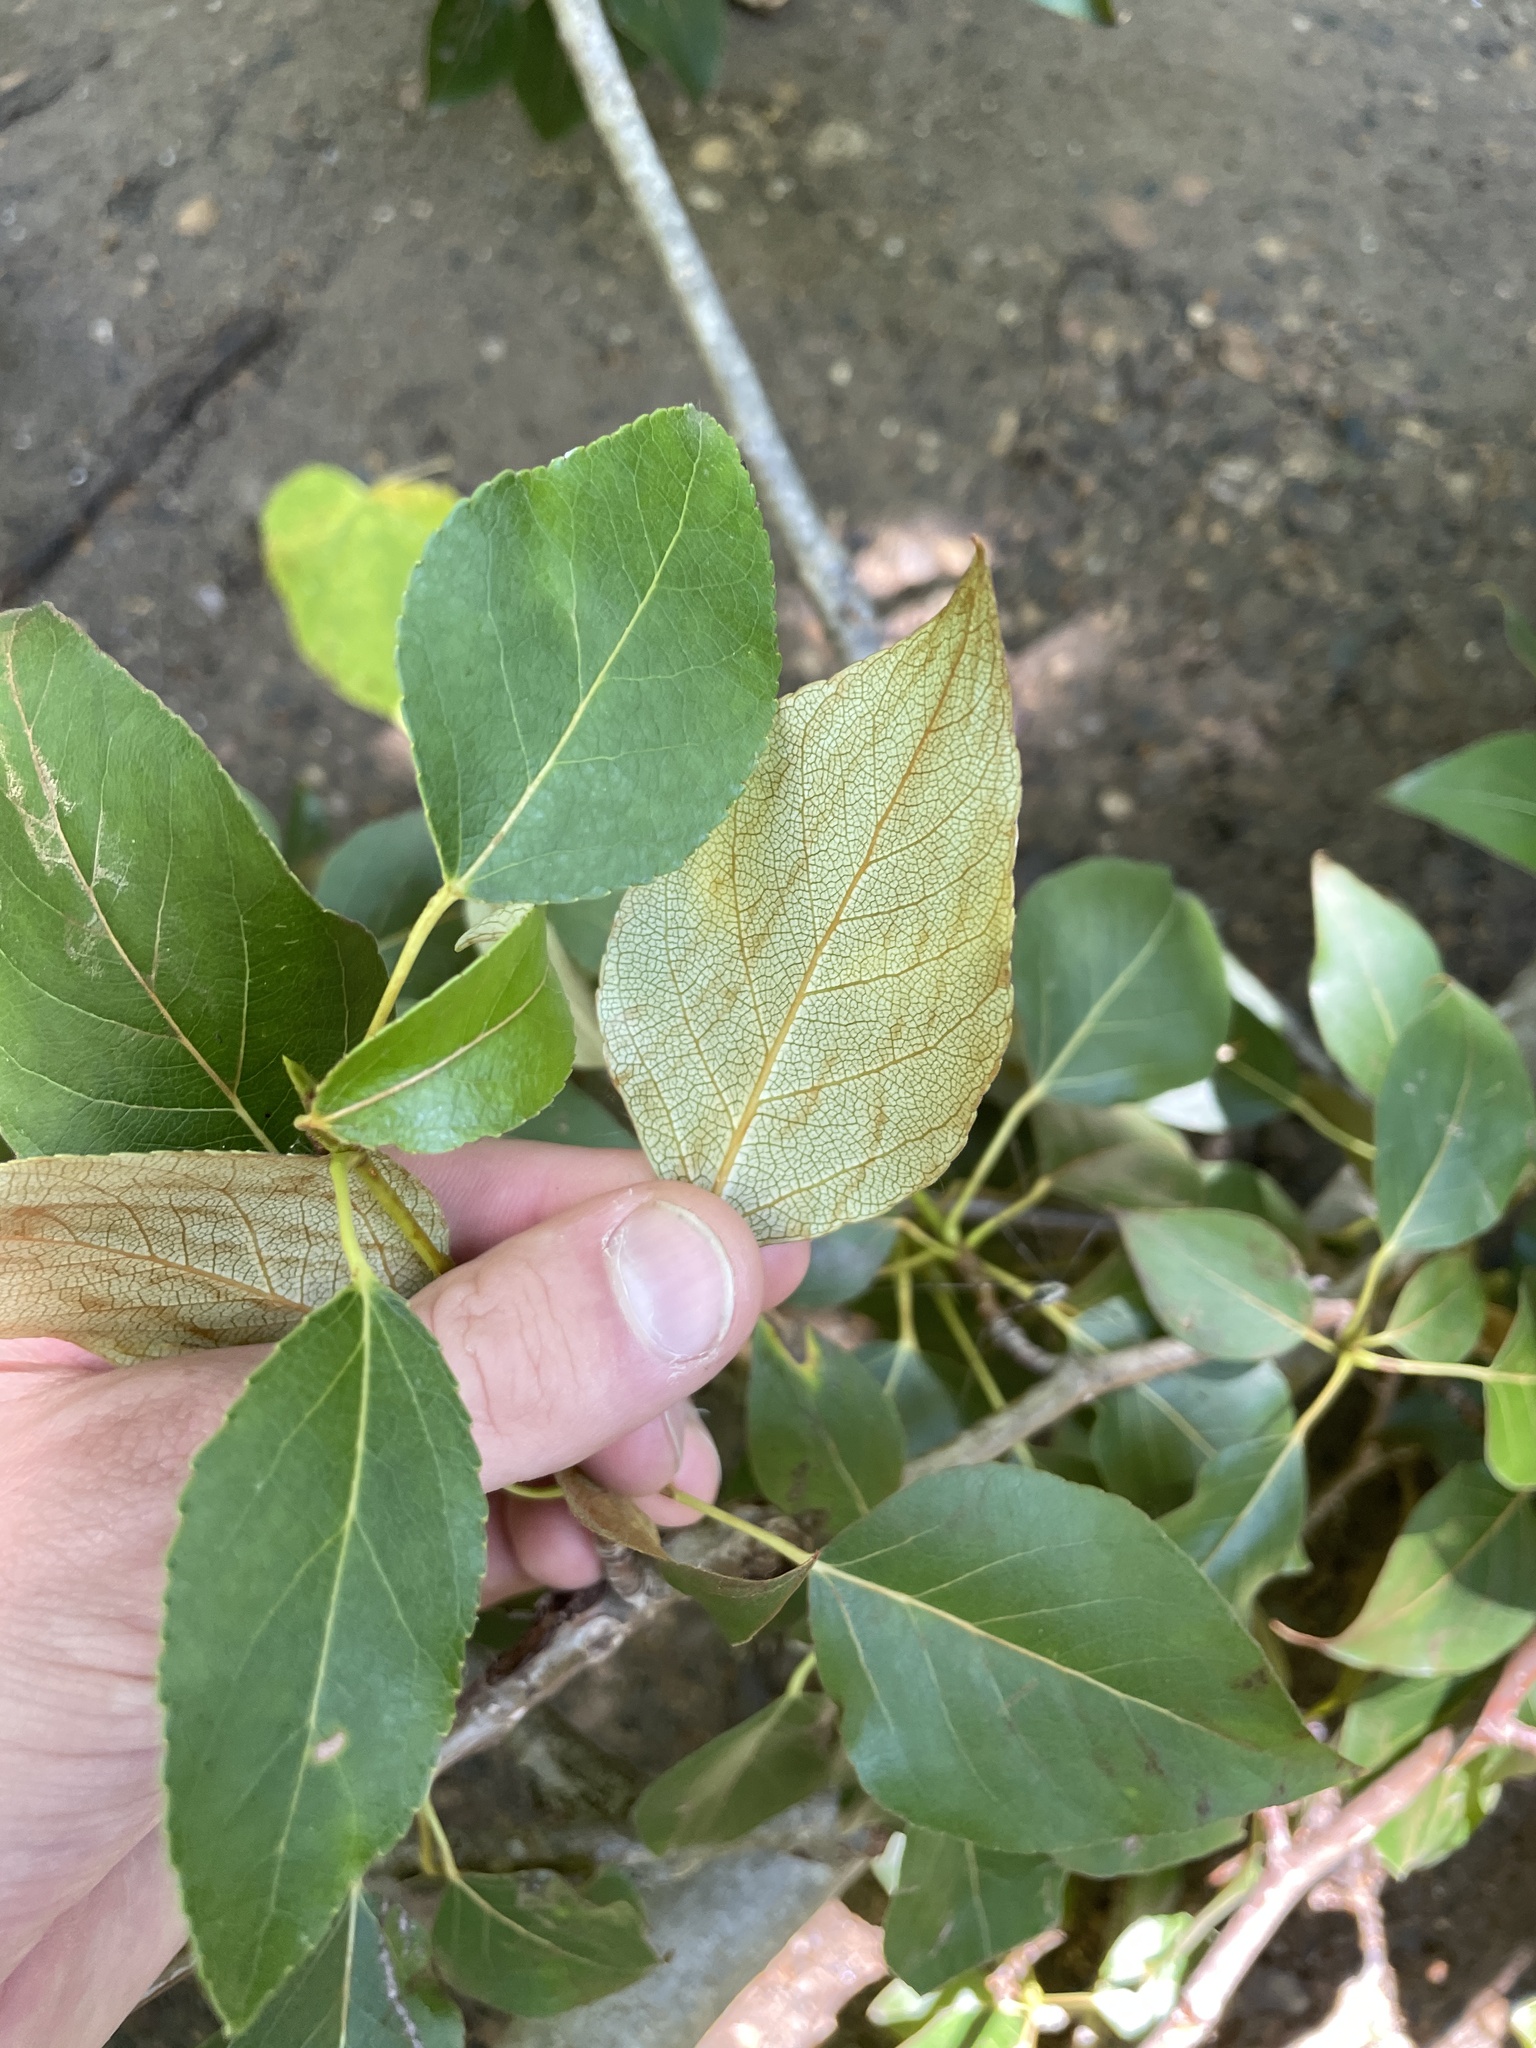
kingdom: Plantae
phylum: Tracheophyta
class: Magnoliopsida
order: Malpighiales
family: Salicaceae
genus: Populus
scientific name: Populus balsamifera
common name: Balsam poplar
